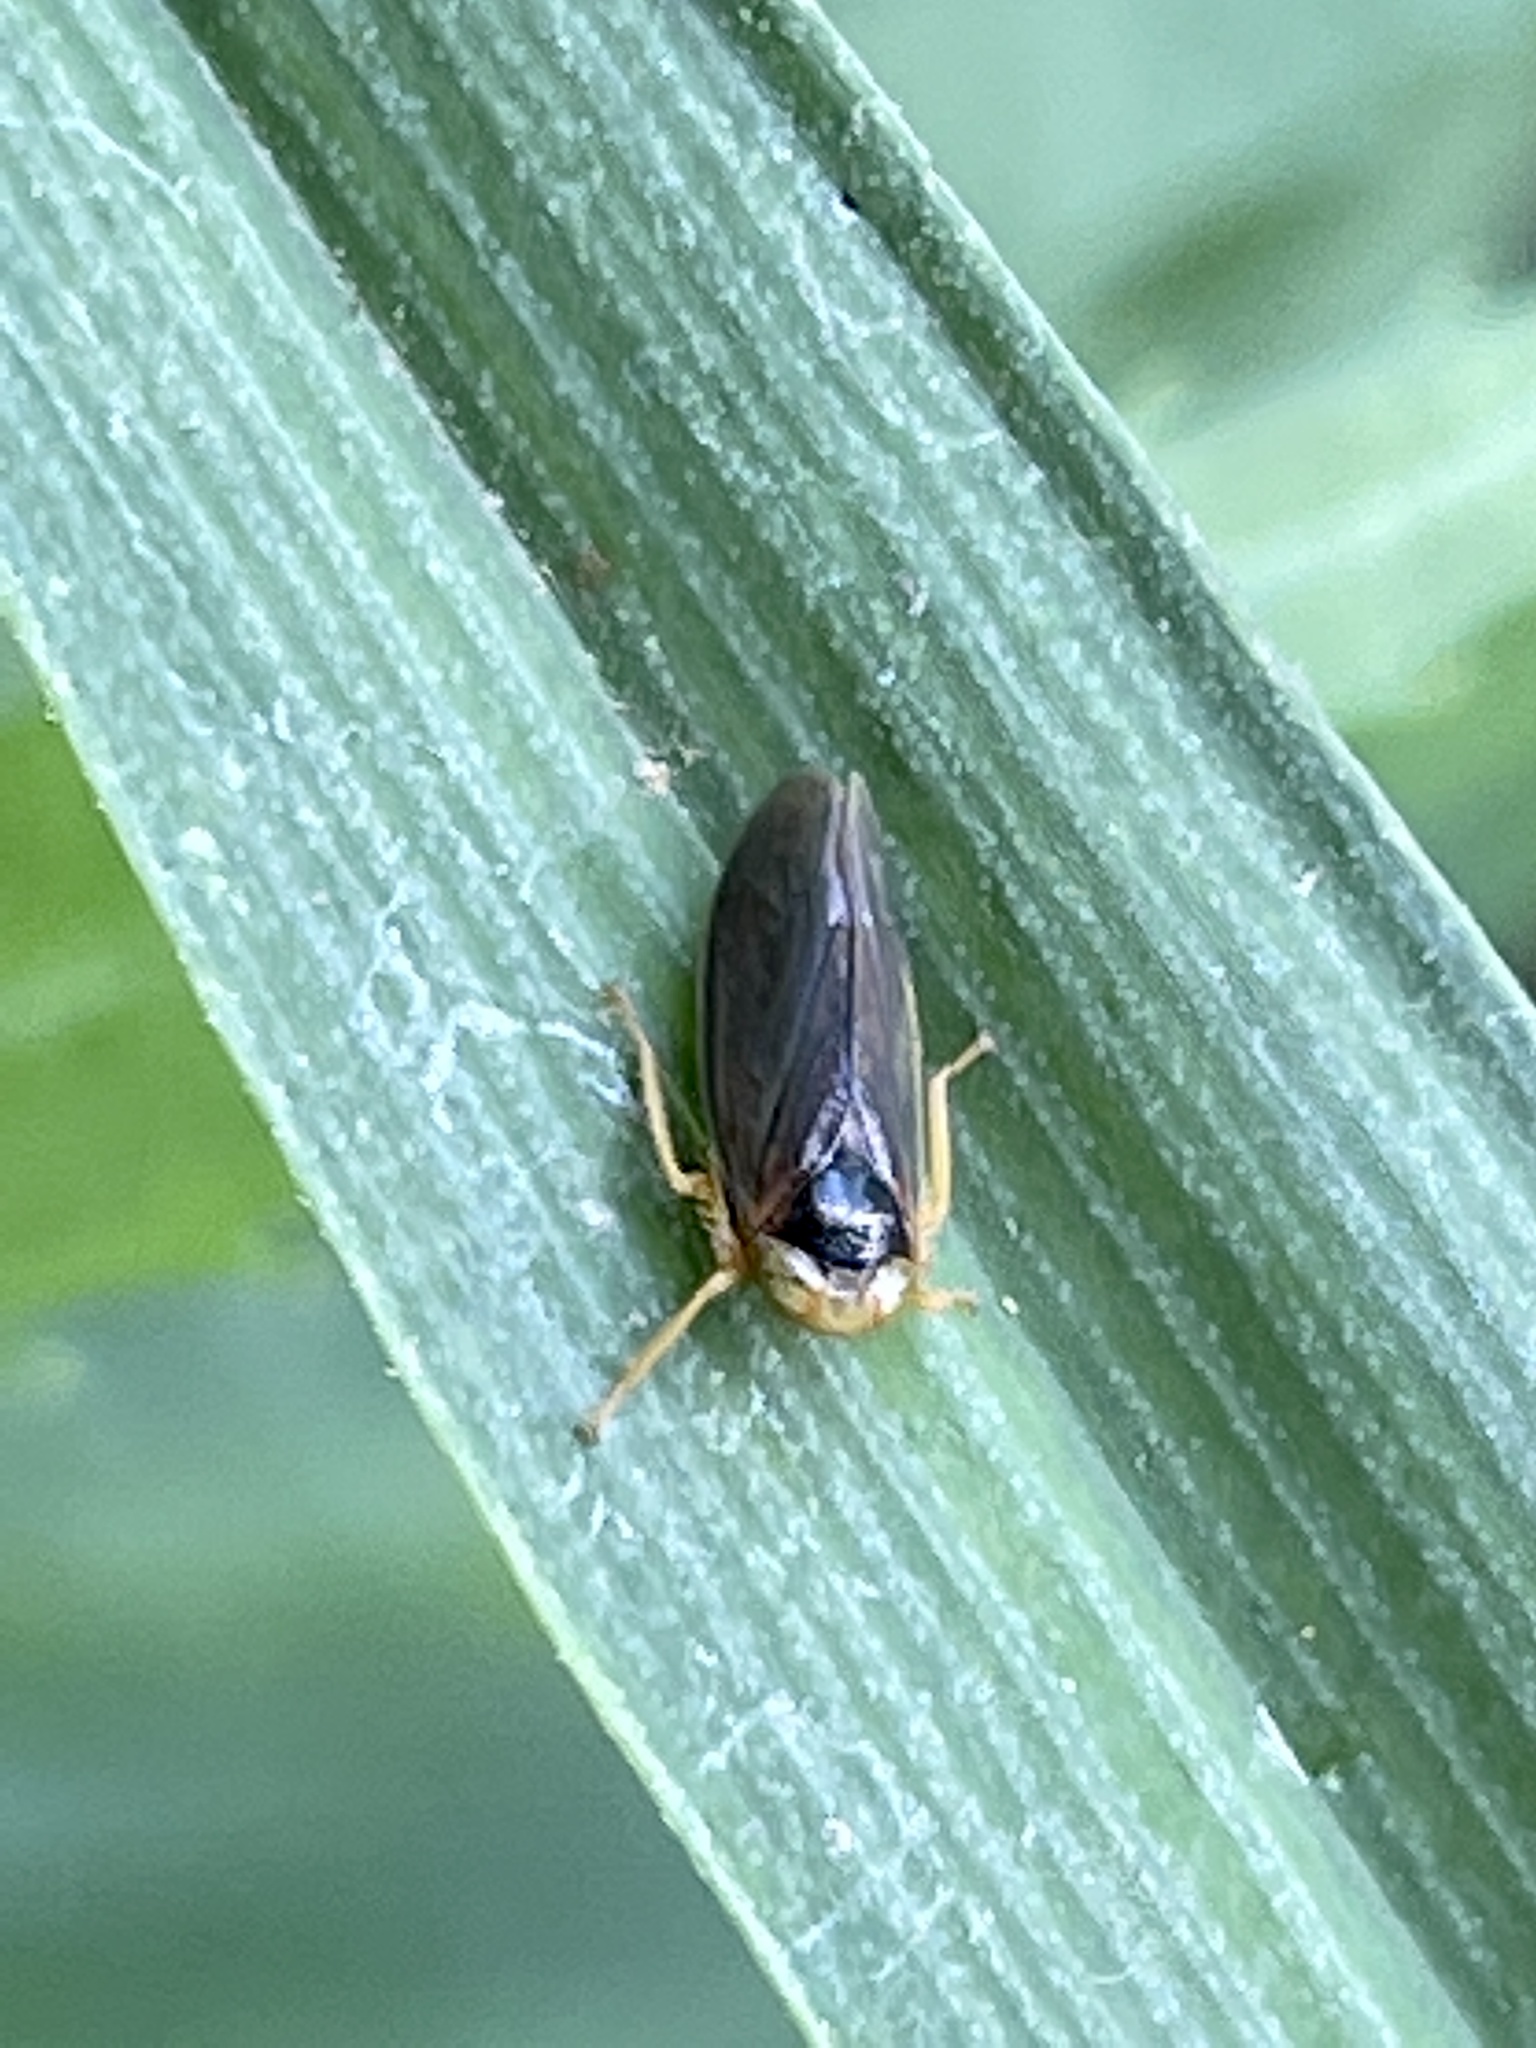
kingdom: Animalia
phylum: Arthropoda
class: Insecta
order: Hemiptera
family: Cicadellidae
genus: Jikradia
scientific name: Jikradia olitoria
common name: Coppery leafhopper
